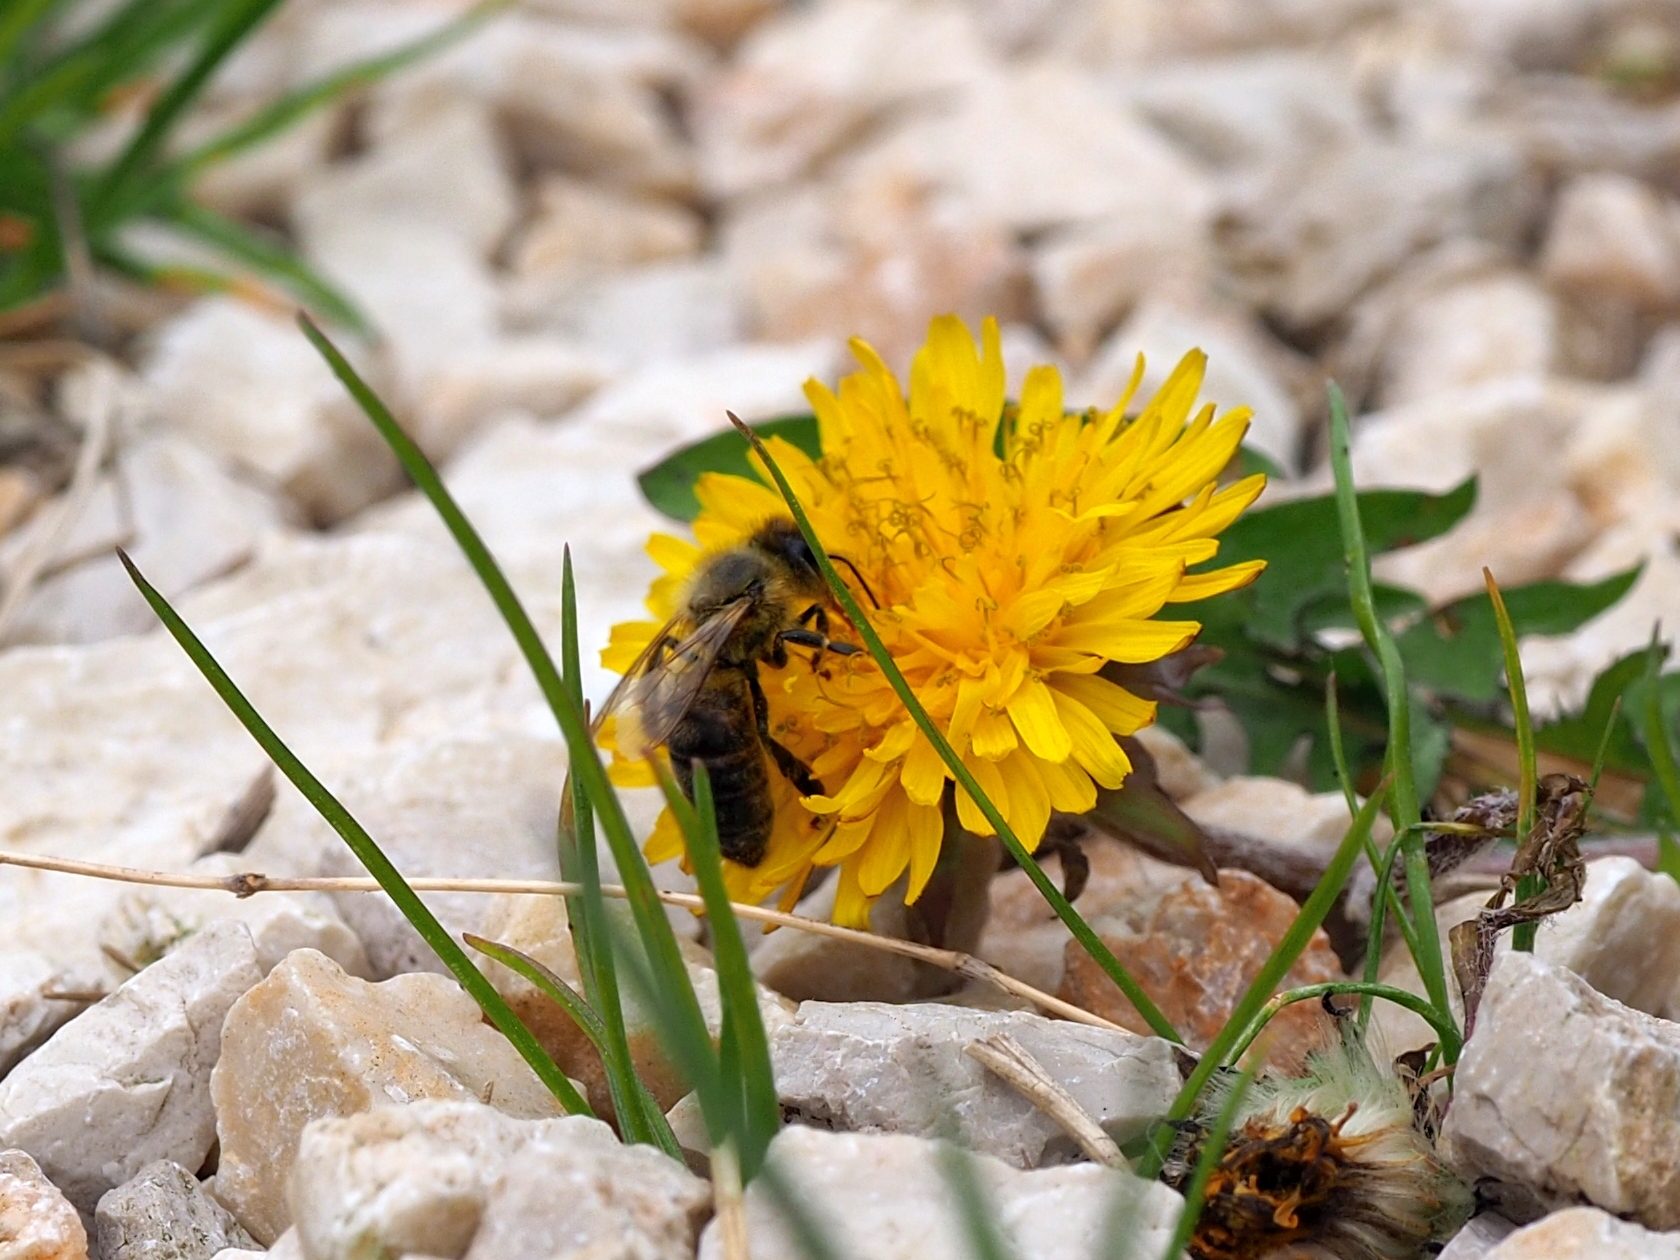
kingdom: Animalia
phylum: Arthropoda
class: Insecta
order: Hymenoptera
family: Apidae
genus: Apis
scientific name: Apis mellifera
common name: Honey bee
